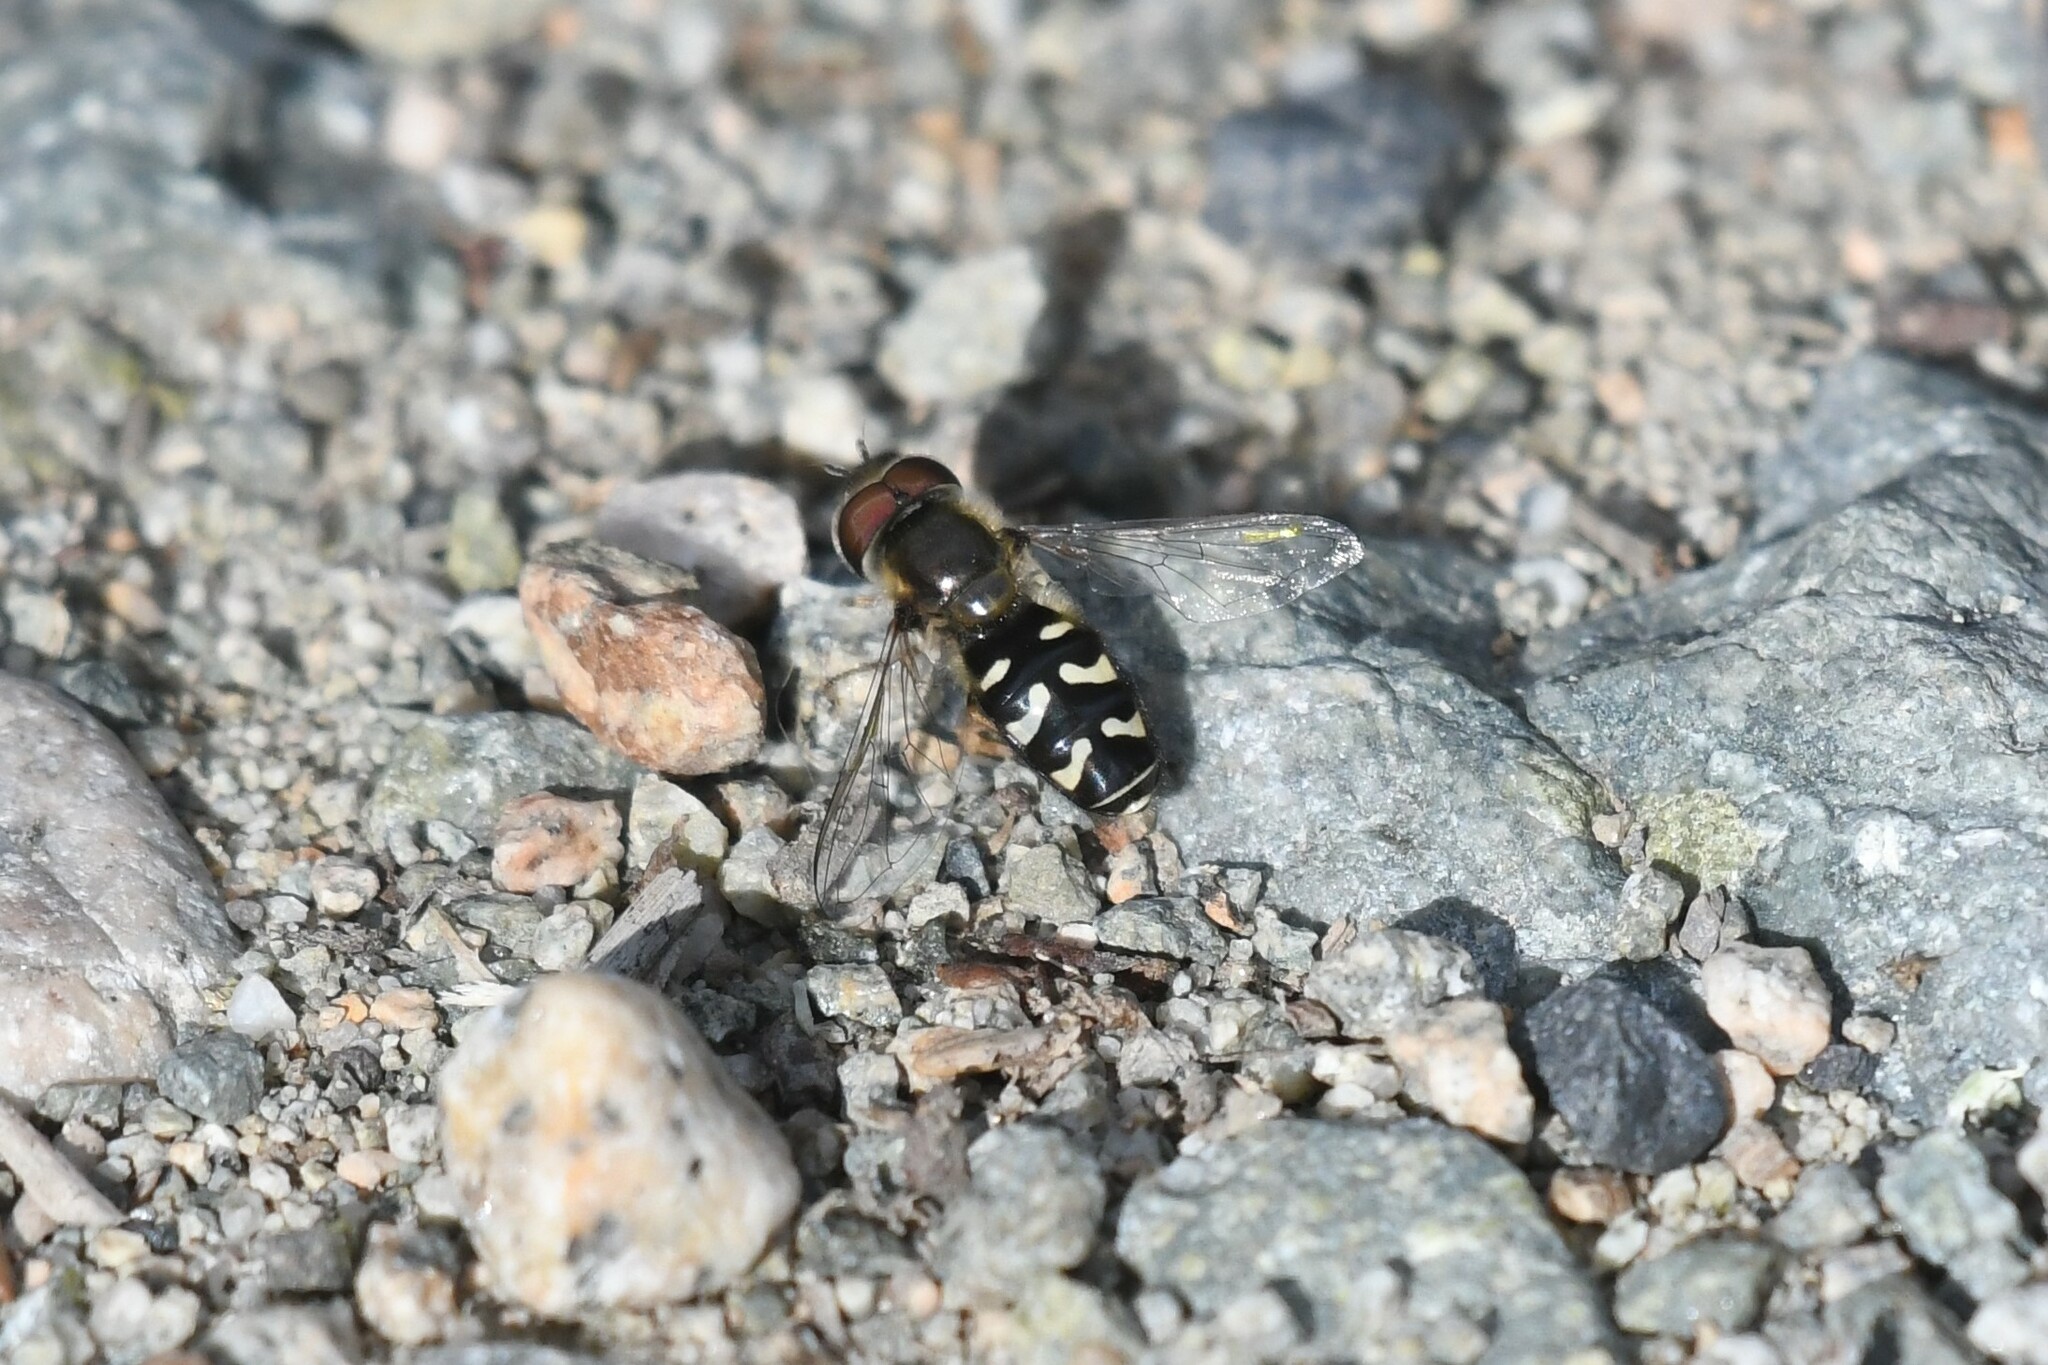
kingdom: Animalia
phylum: Arthropoda
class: Insecta
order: Diptera
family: Syrphidae
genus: Scaeva
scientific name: Scaeva affinis
